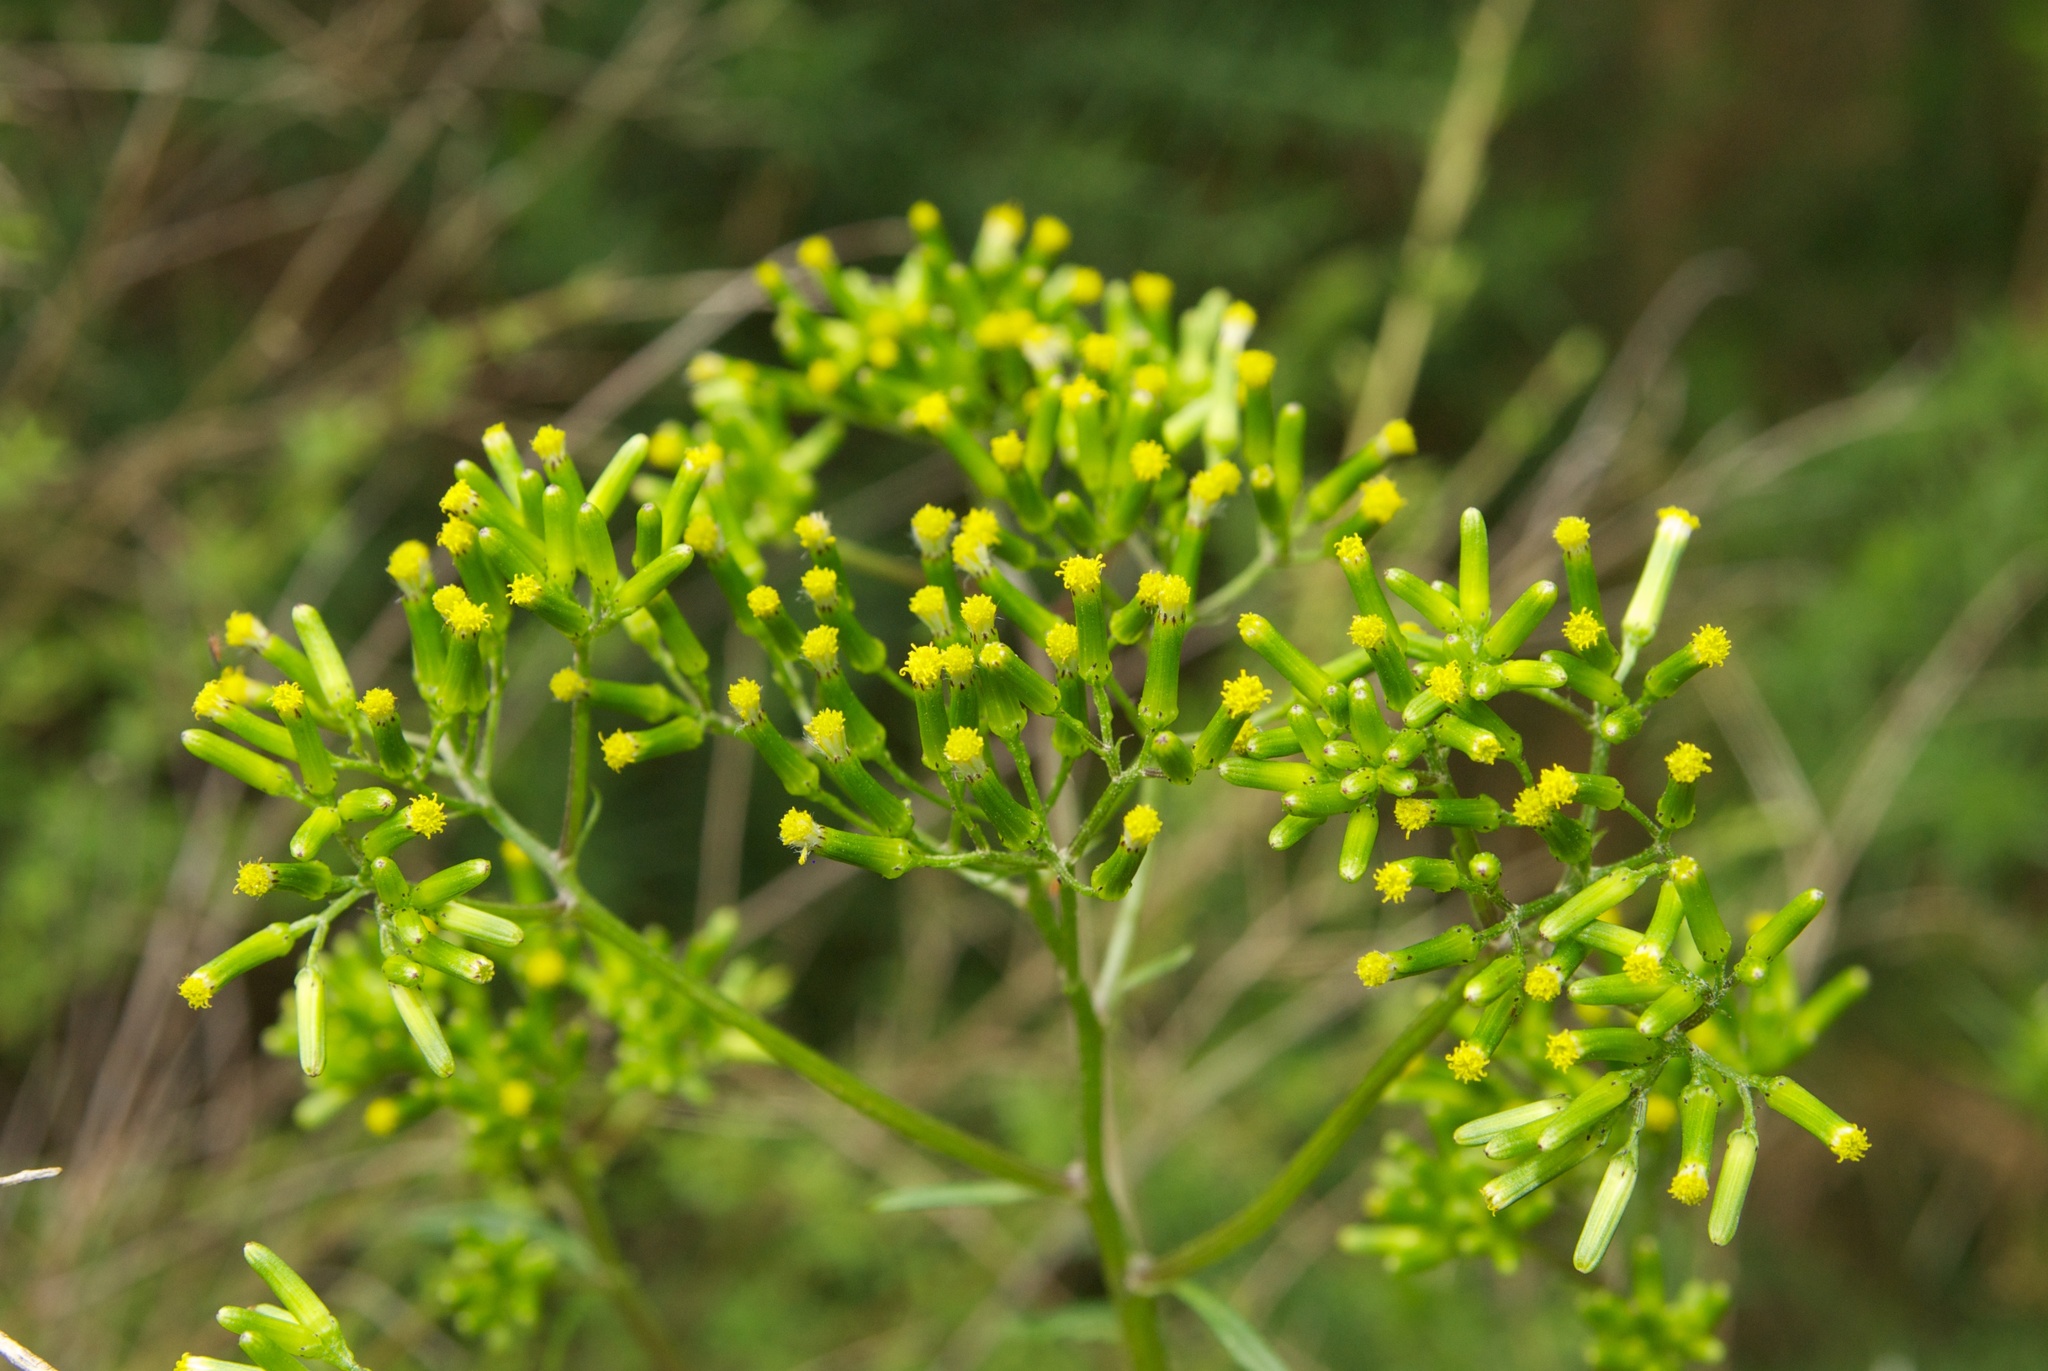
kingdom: Plantae
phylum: Tracheophyta
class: Magnoliopsida
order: Asterales
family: Asteraceae
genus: Senecio
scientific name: Senecio biserratus
